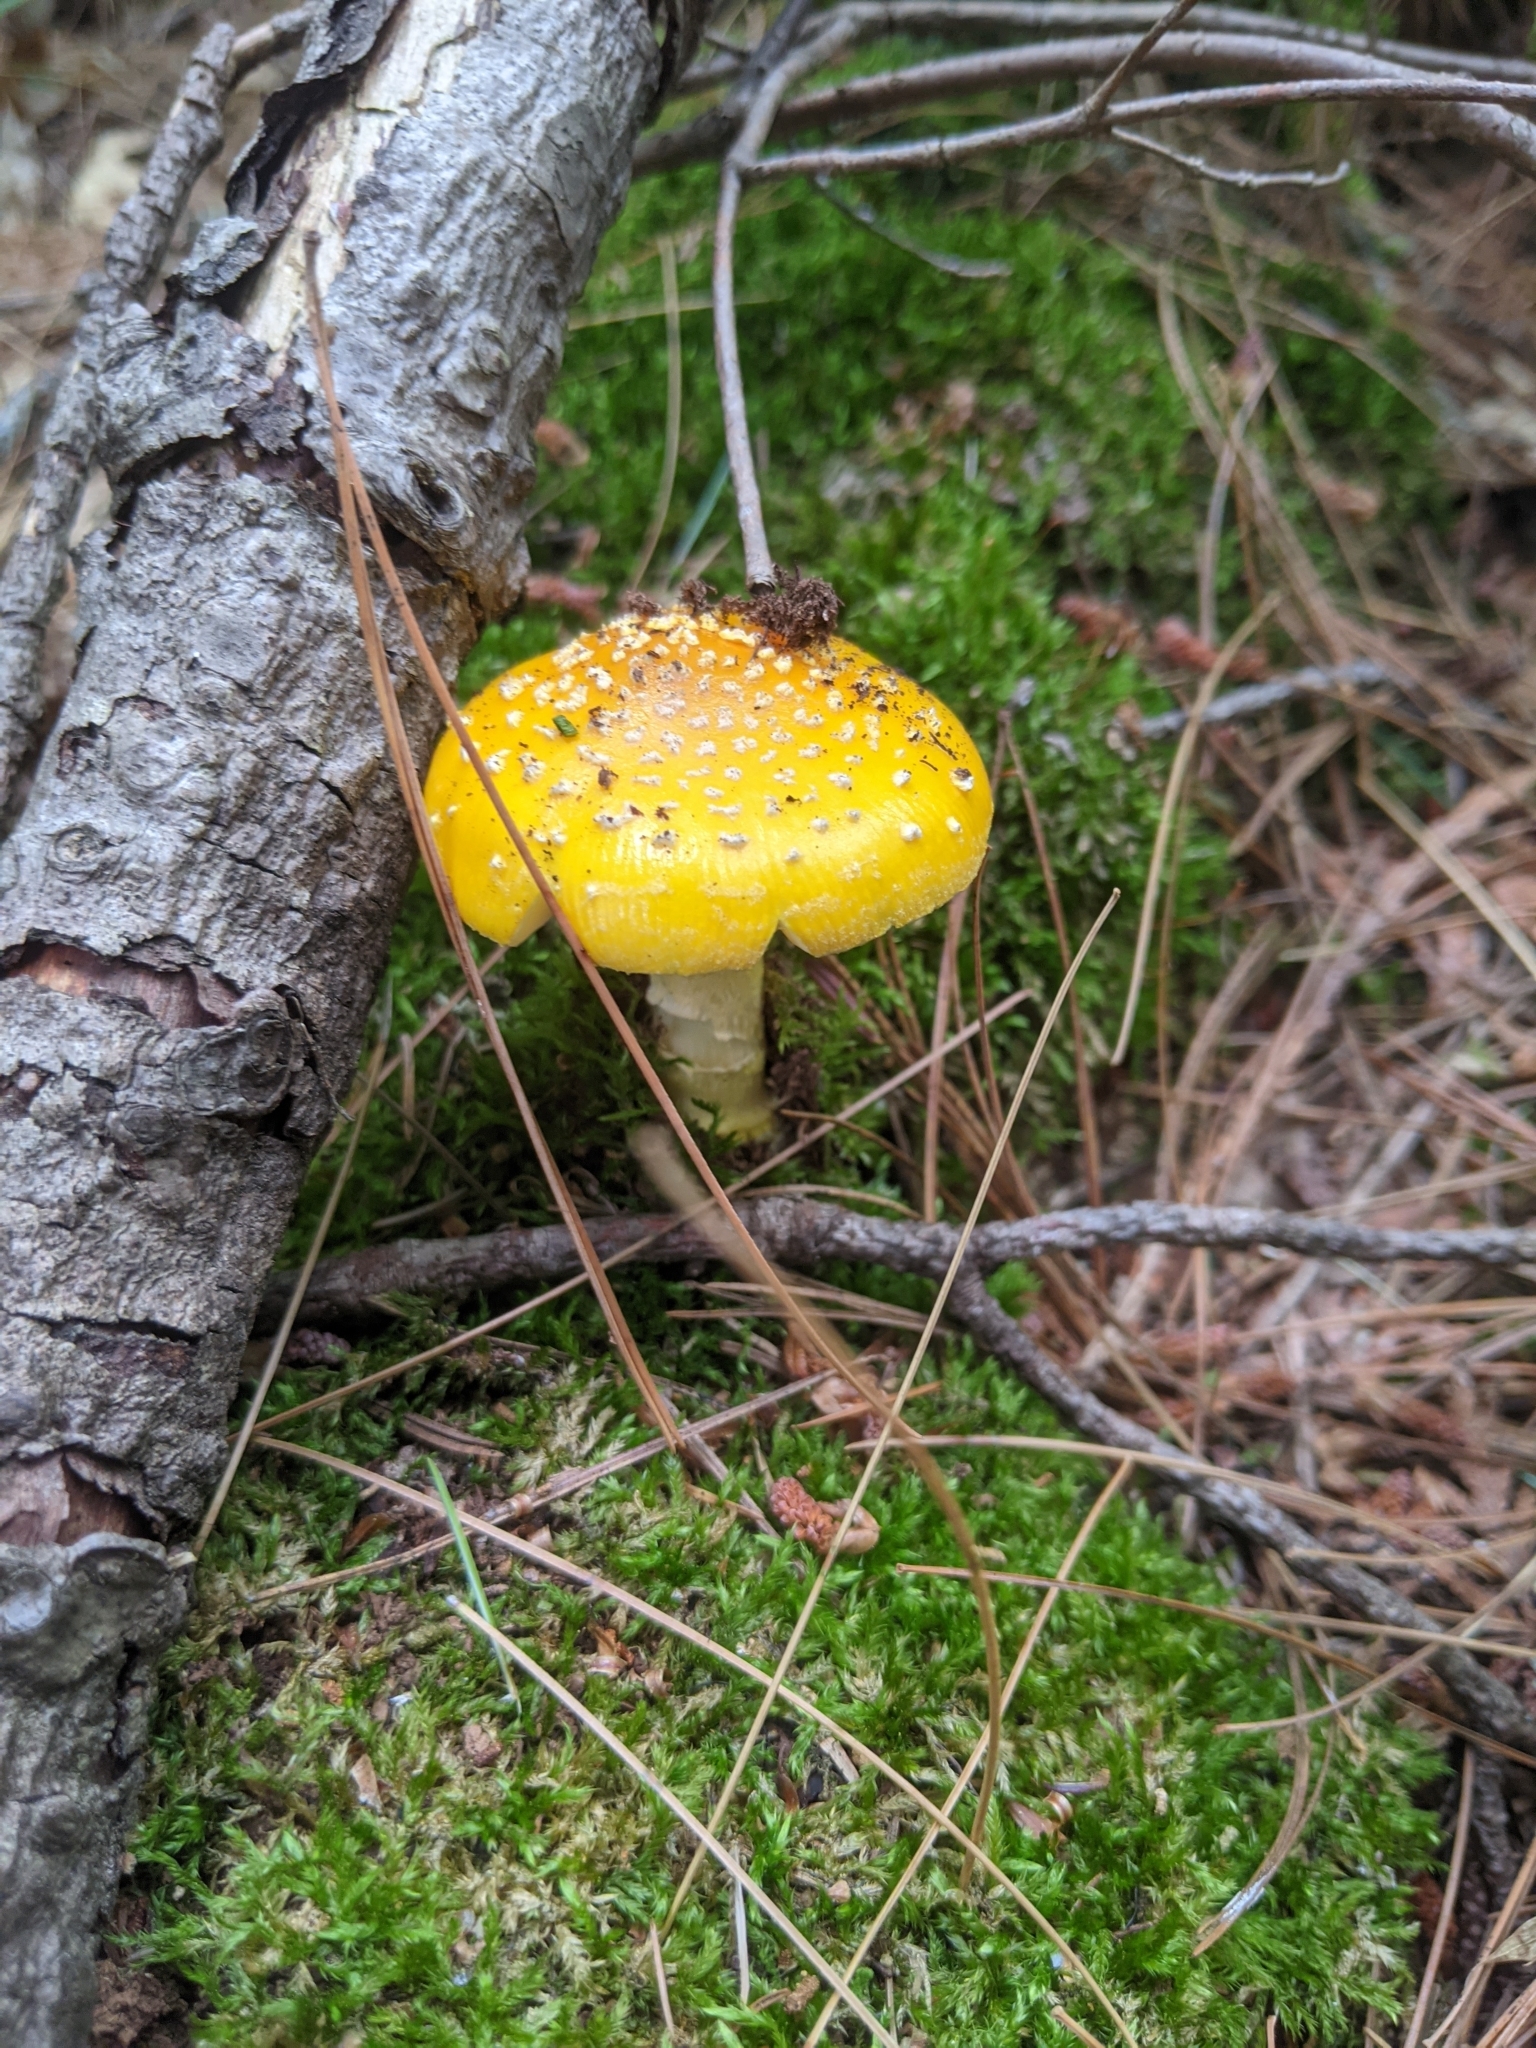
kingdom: Fungi
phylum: Basidiomycota
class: Agaricomycetes
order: Agaricales
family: Amanitaceae
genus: Amanita
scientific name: Amanita frostiana
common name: Frost's amanita
